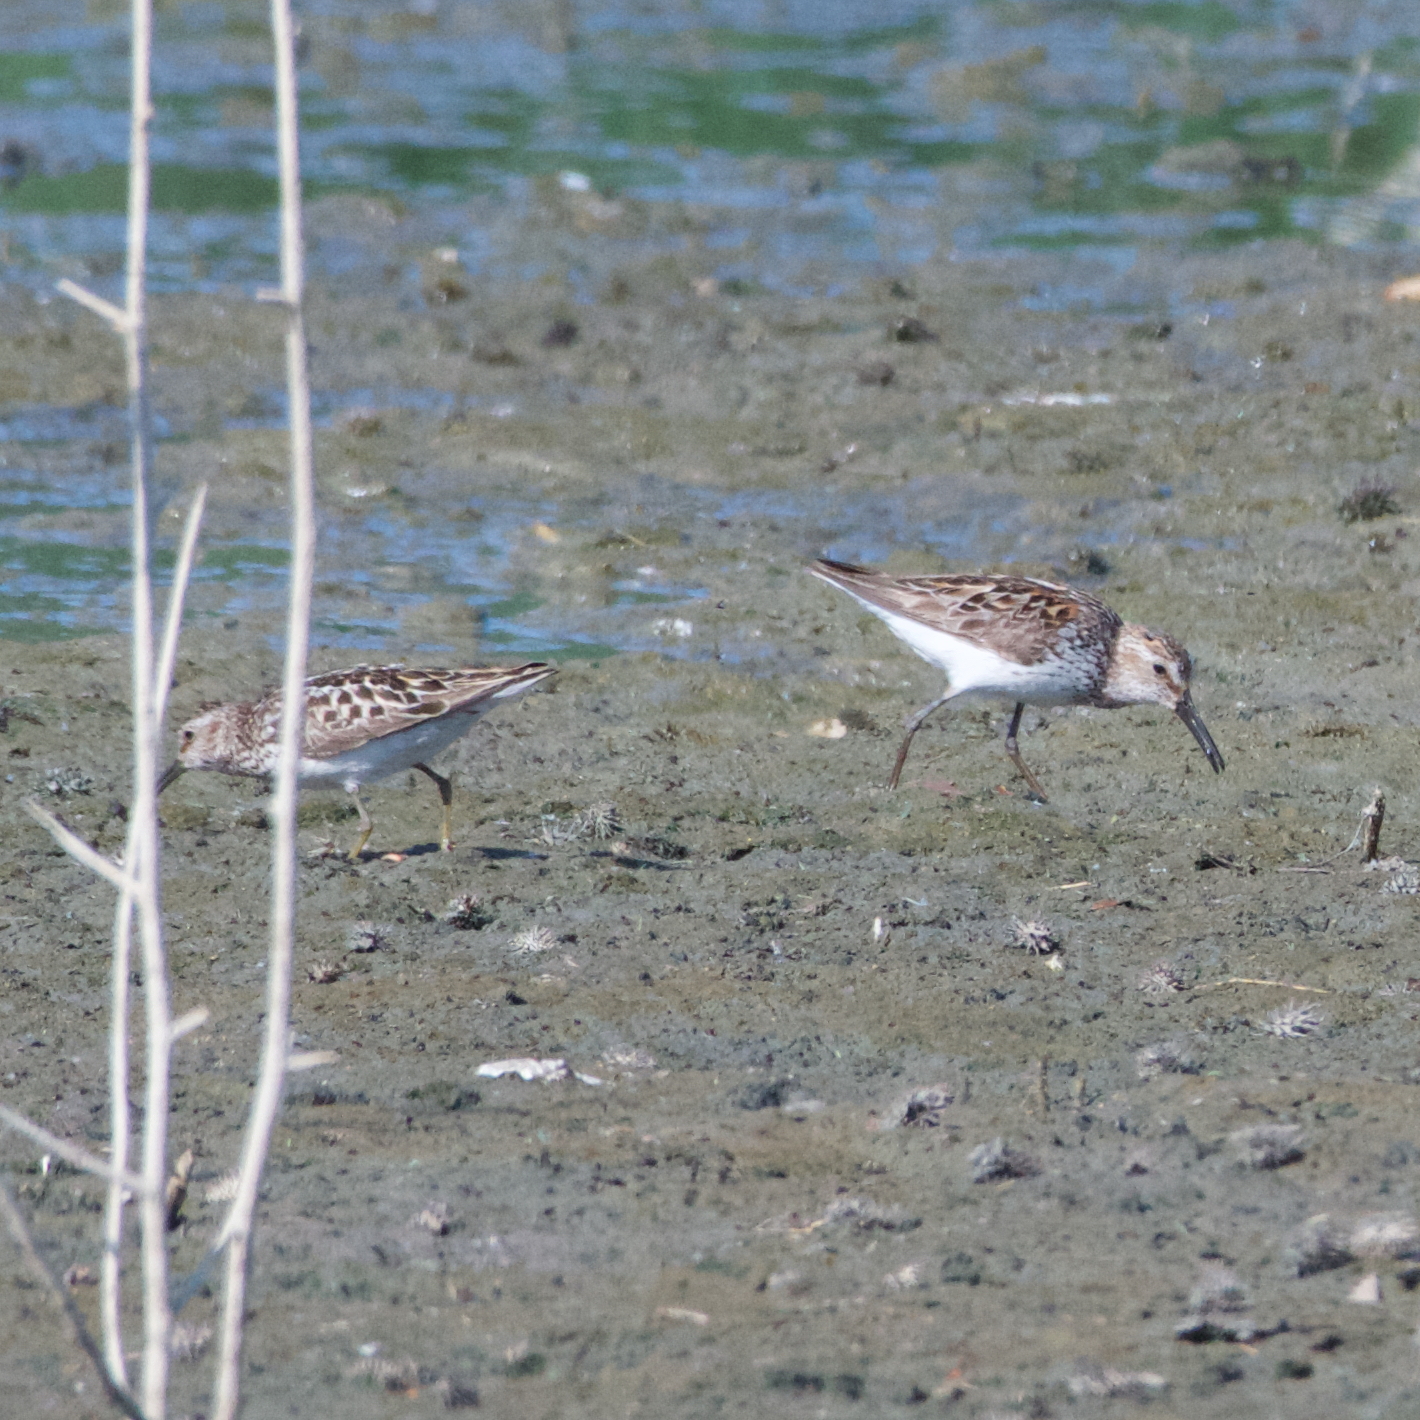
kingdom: Animalia
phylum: Chordata
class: Aves
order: Charadriiformes
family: Scolopacidae
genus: Calidris
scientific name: Calidris mauri
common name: Western sandpiper
